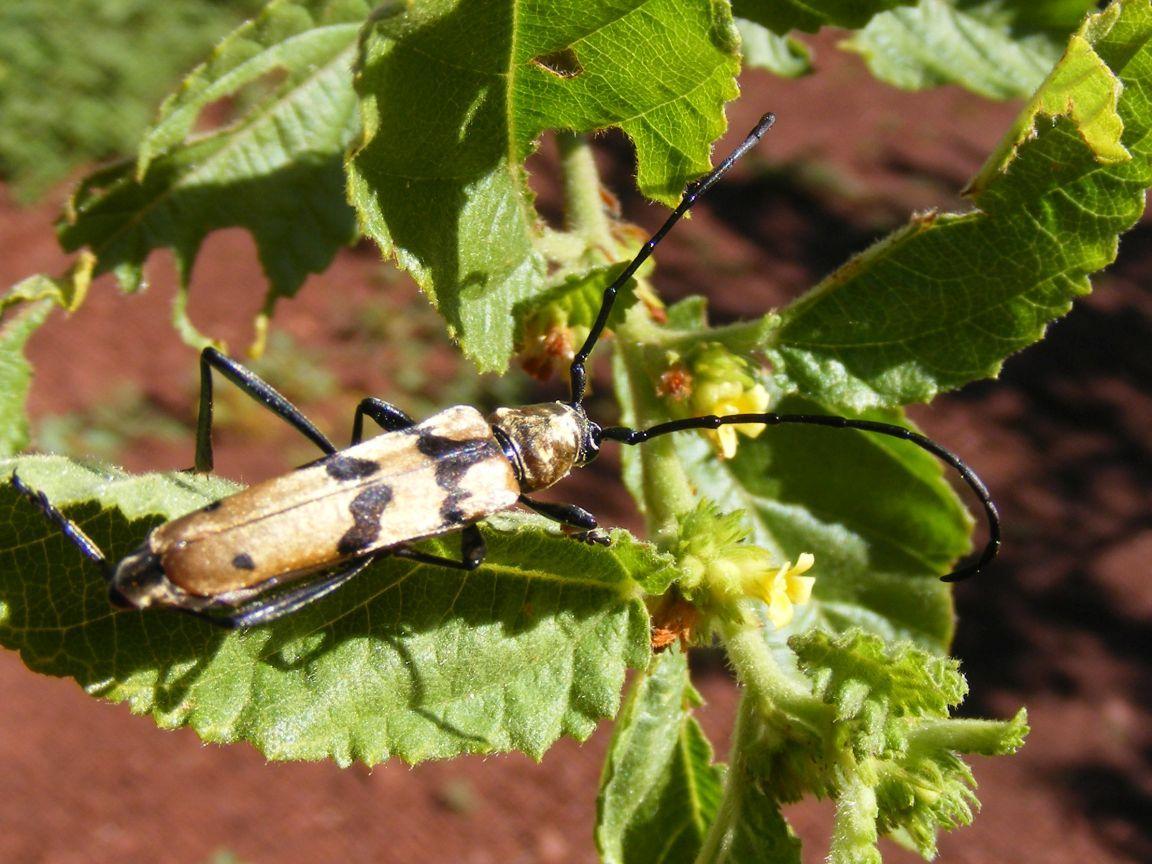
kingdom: Animalia
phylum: Arthropoda
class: Insecta
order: Coleoptera
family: Cerambycidae
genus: Anubis
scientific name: Anubis pubicollis
